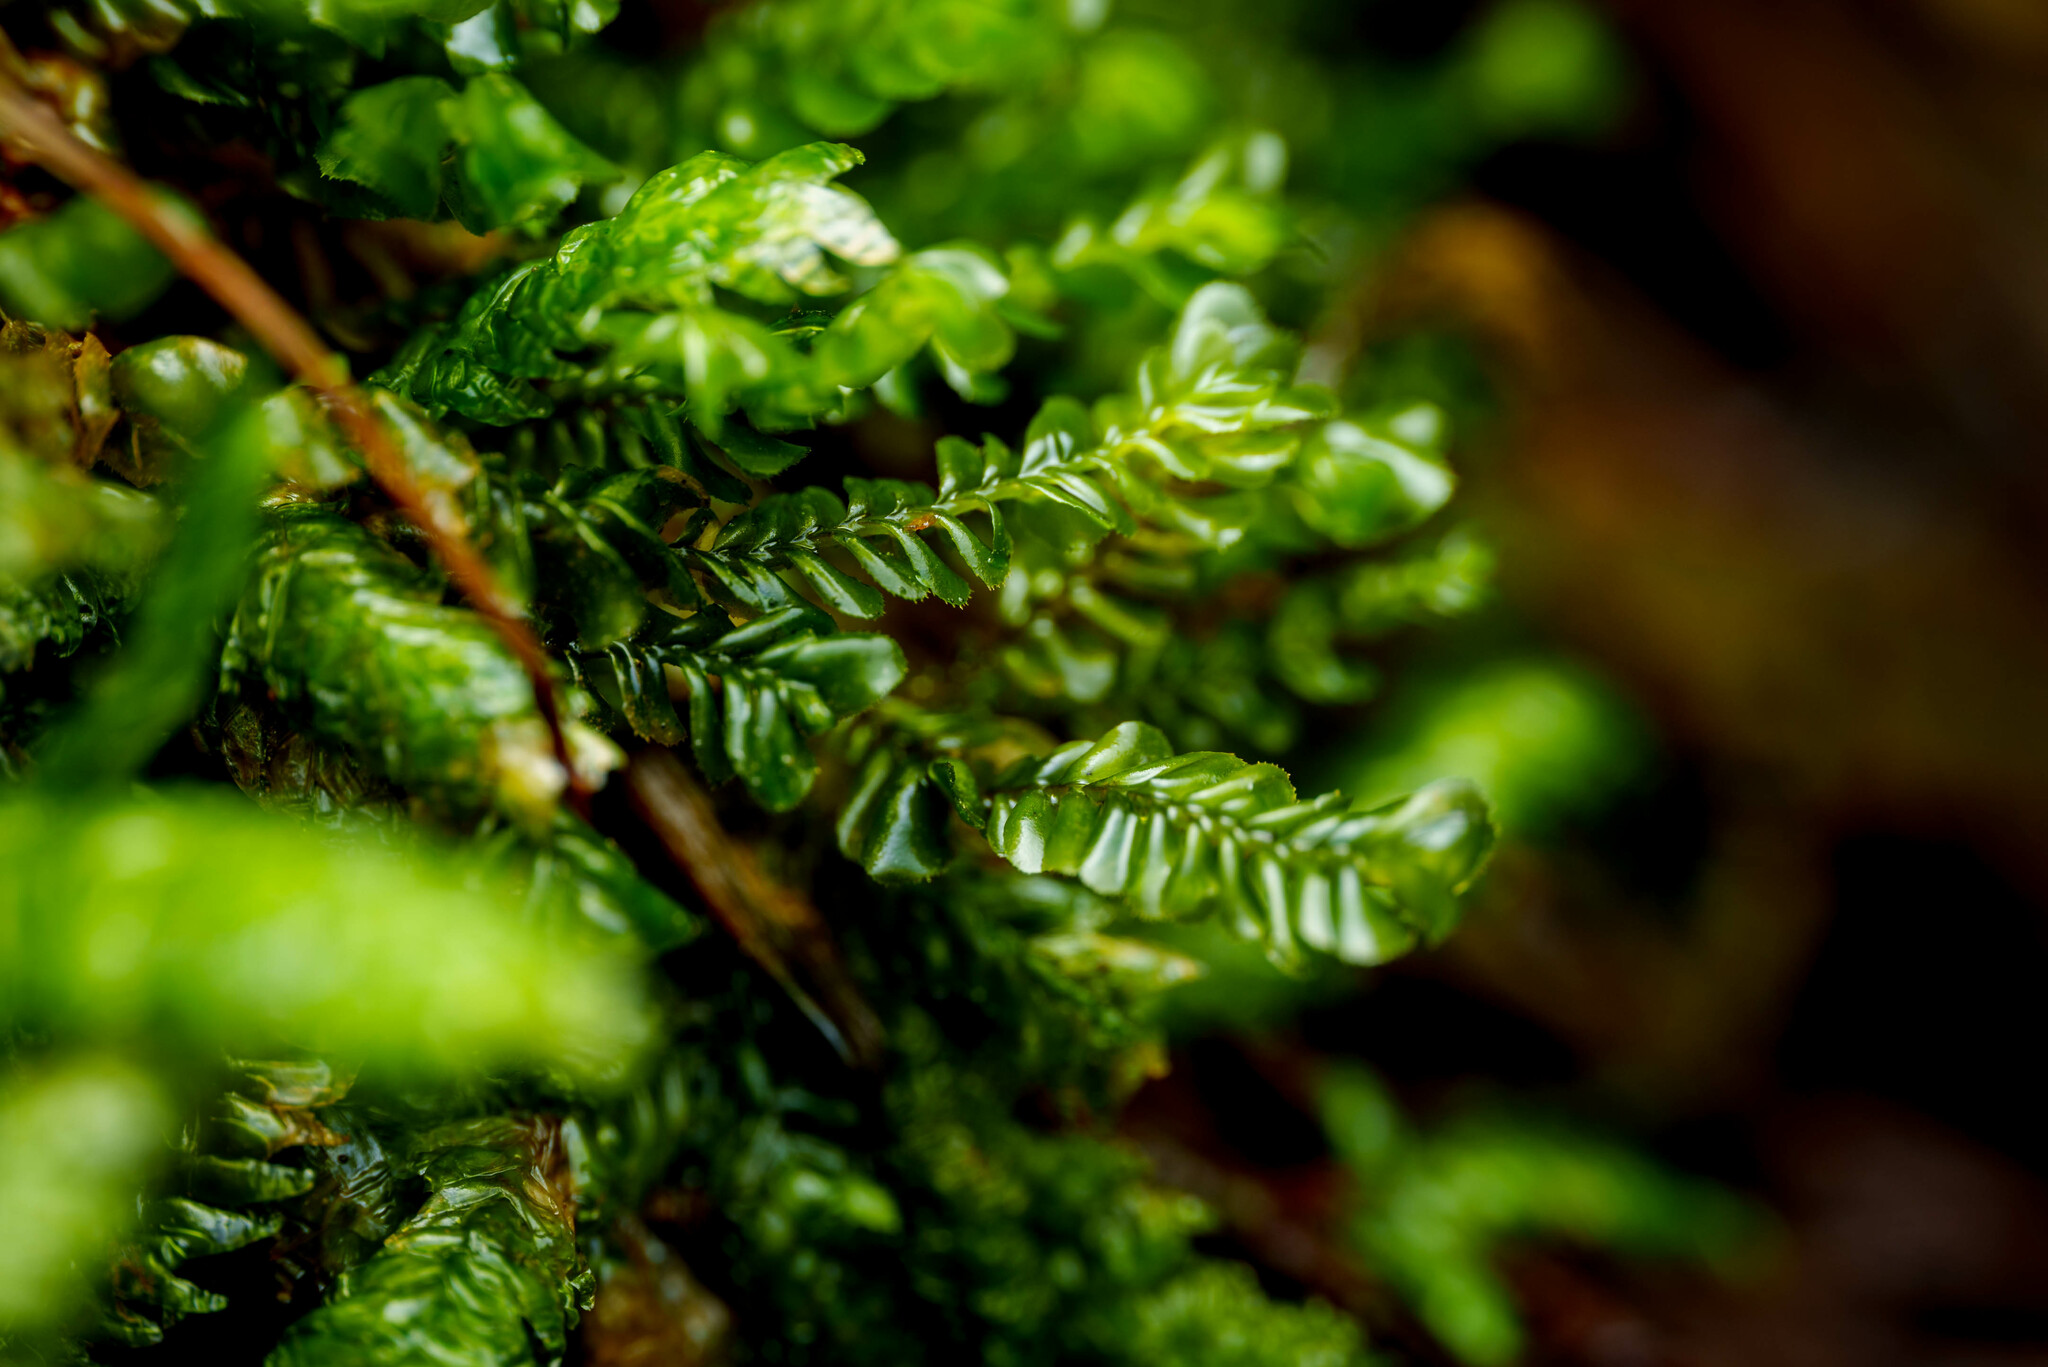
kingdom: Plantae
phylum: Marchantiophyta
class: Jungermanniopsida
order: Jungermanniales
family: Plagiochilaceae
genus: Plagiochila
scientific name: Plagiochila porelloides
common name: Lesser featherwort
